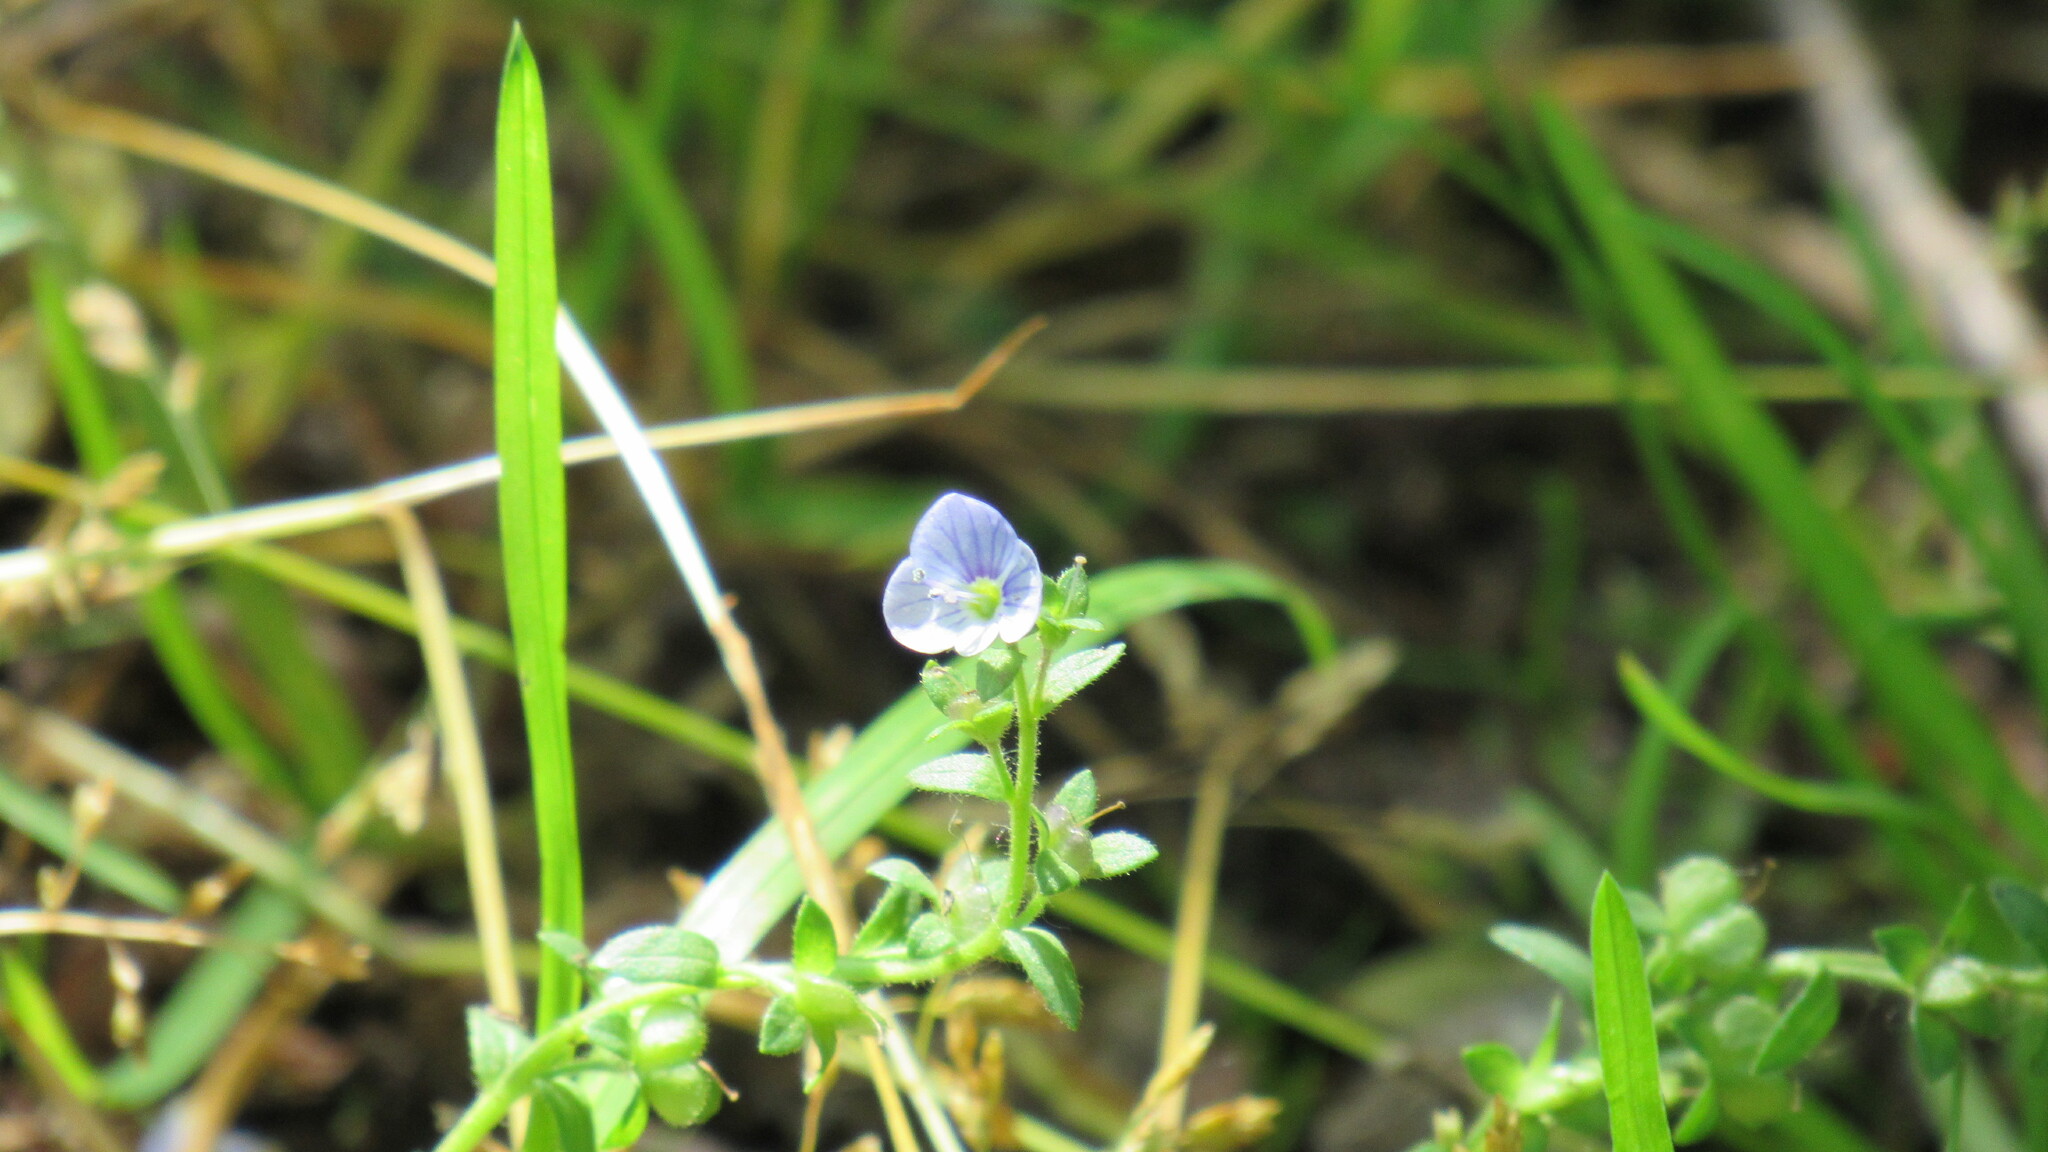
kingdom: Plantae
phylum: Tracheophyta
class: Magnoliopsida
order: Lamiales
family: Plantaginaceae
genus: Veronica
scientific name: Veronica serpyllifolia
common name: Thyme-leaved speedwell
